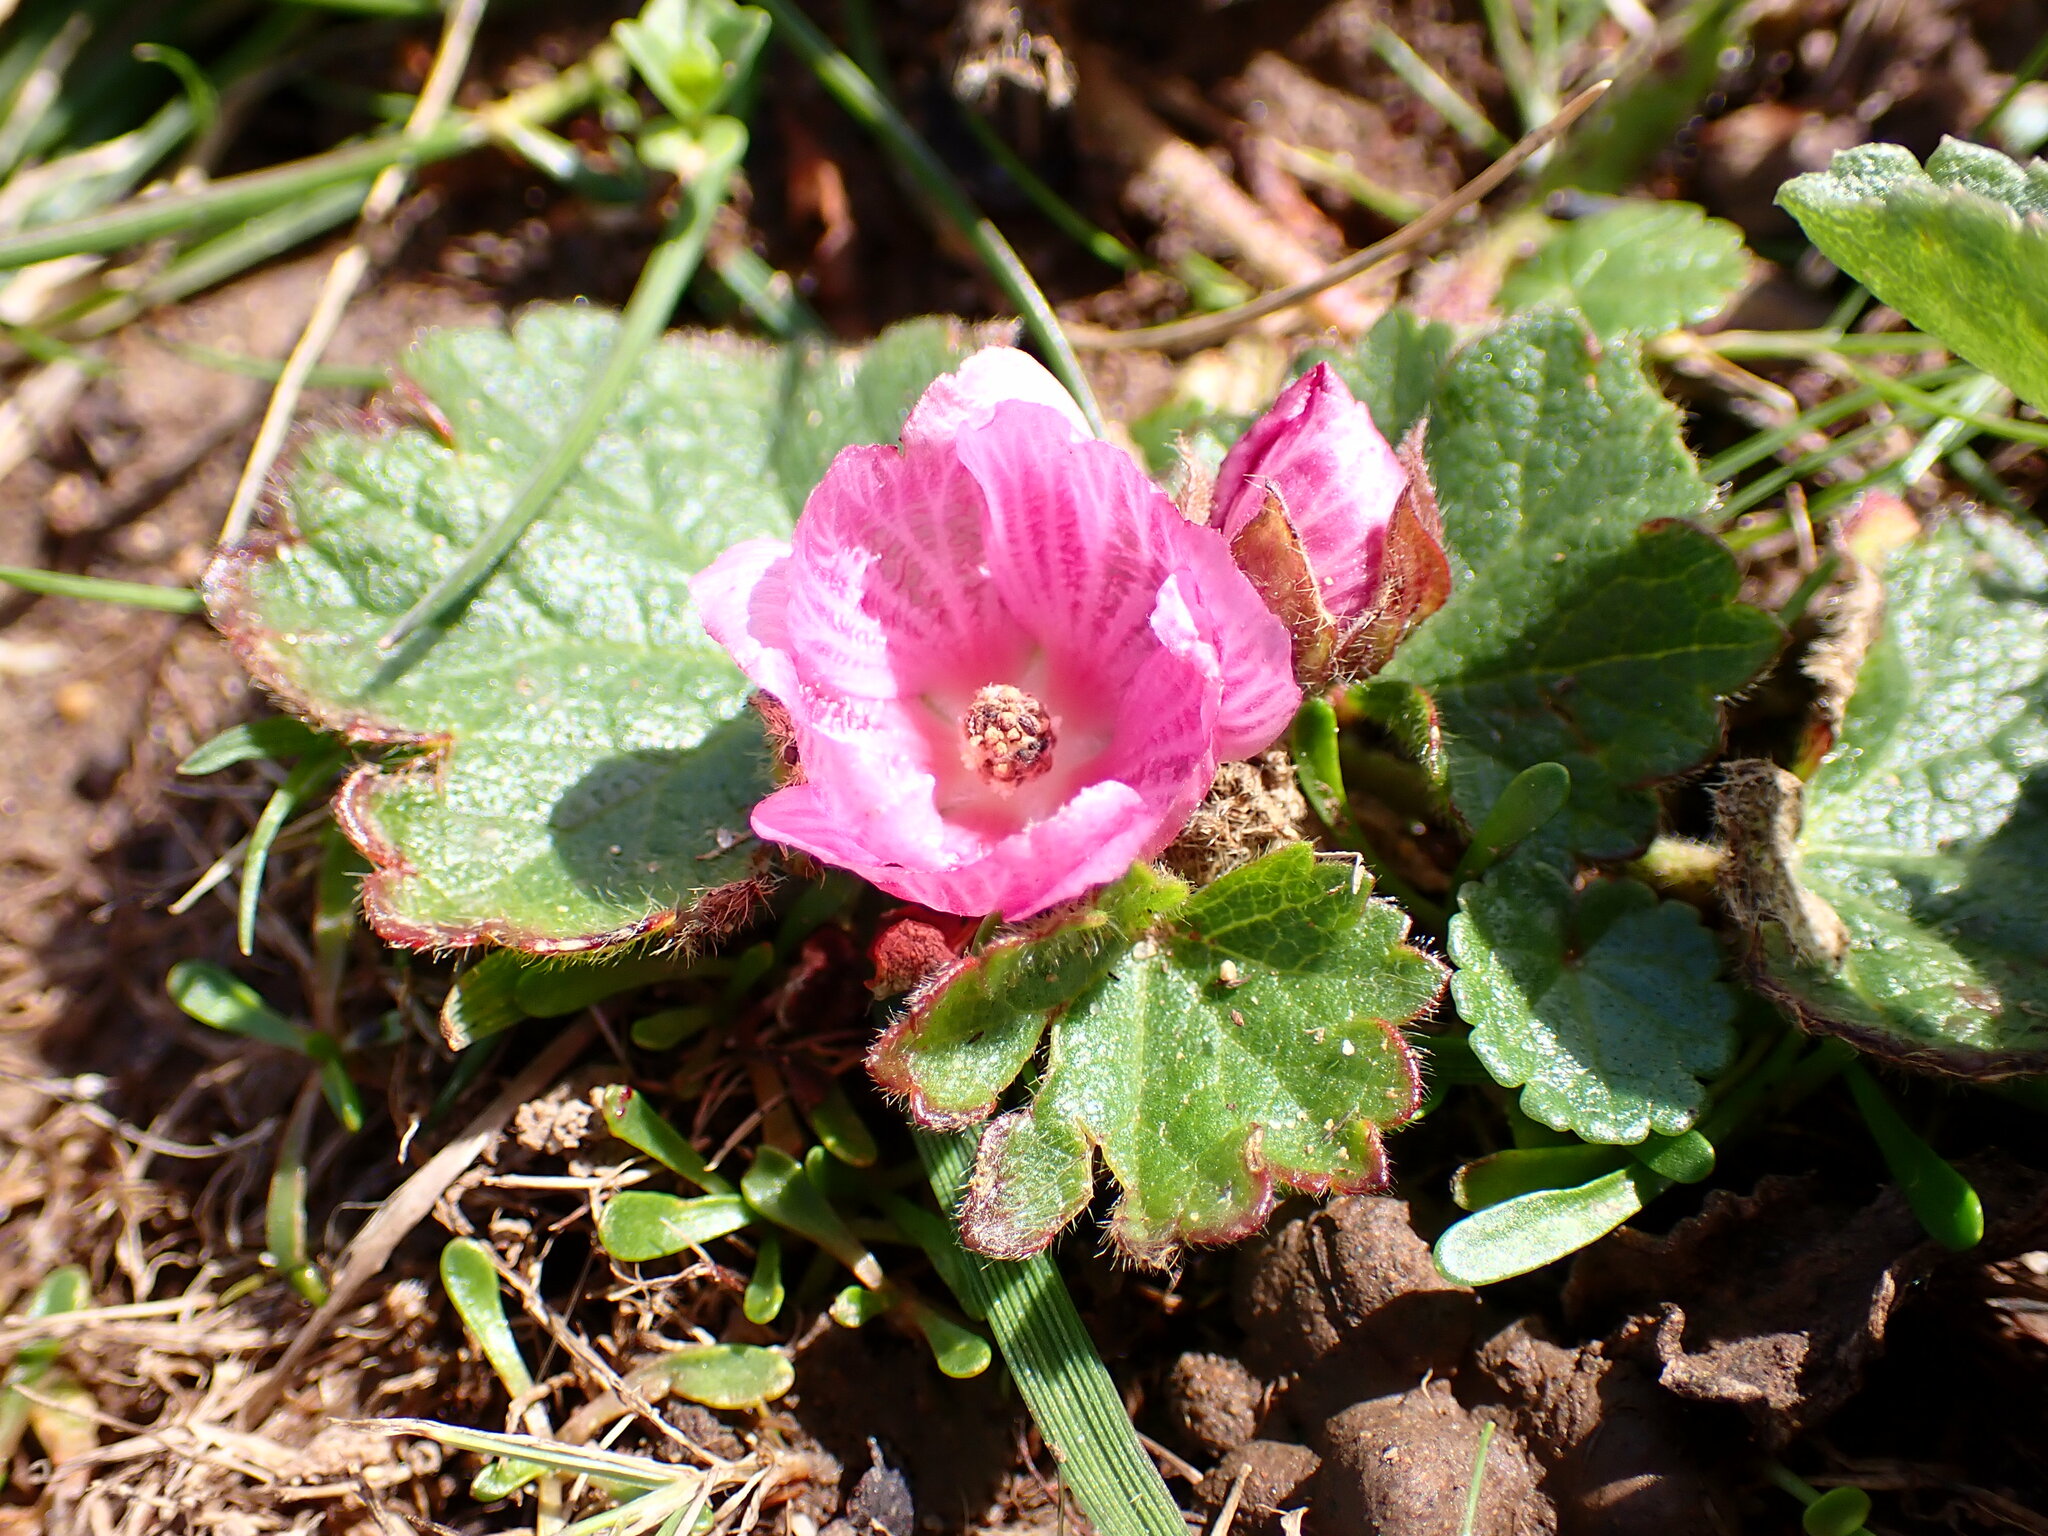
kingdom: Plantae
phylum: Tracheophyta
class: Magnoliopsida
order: Malvales
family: Malvaceae
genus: Sidalcea
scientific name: Sidalcea malviflora
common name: Greek mallow
